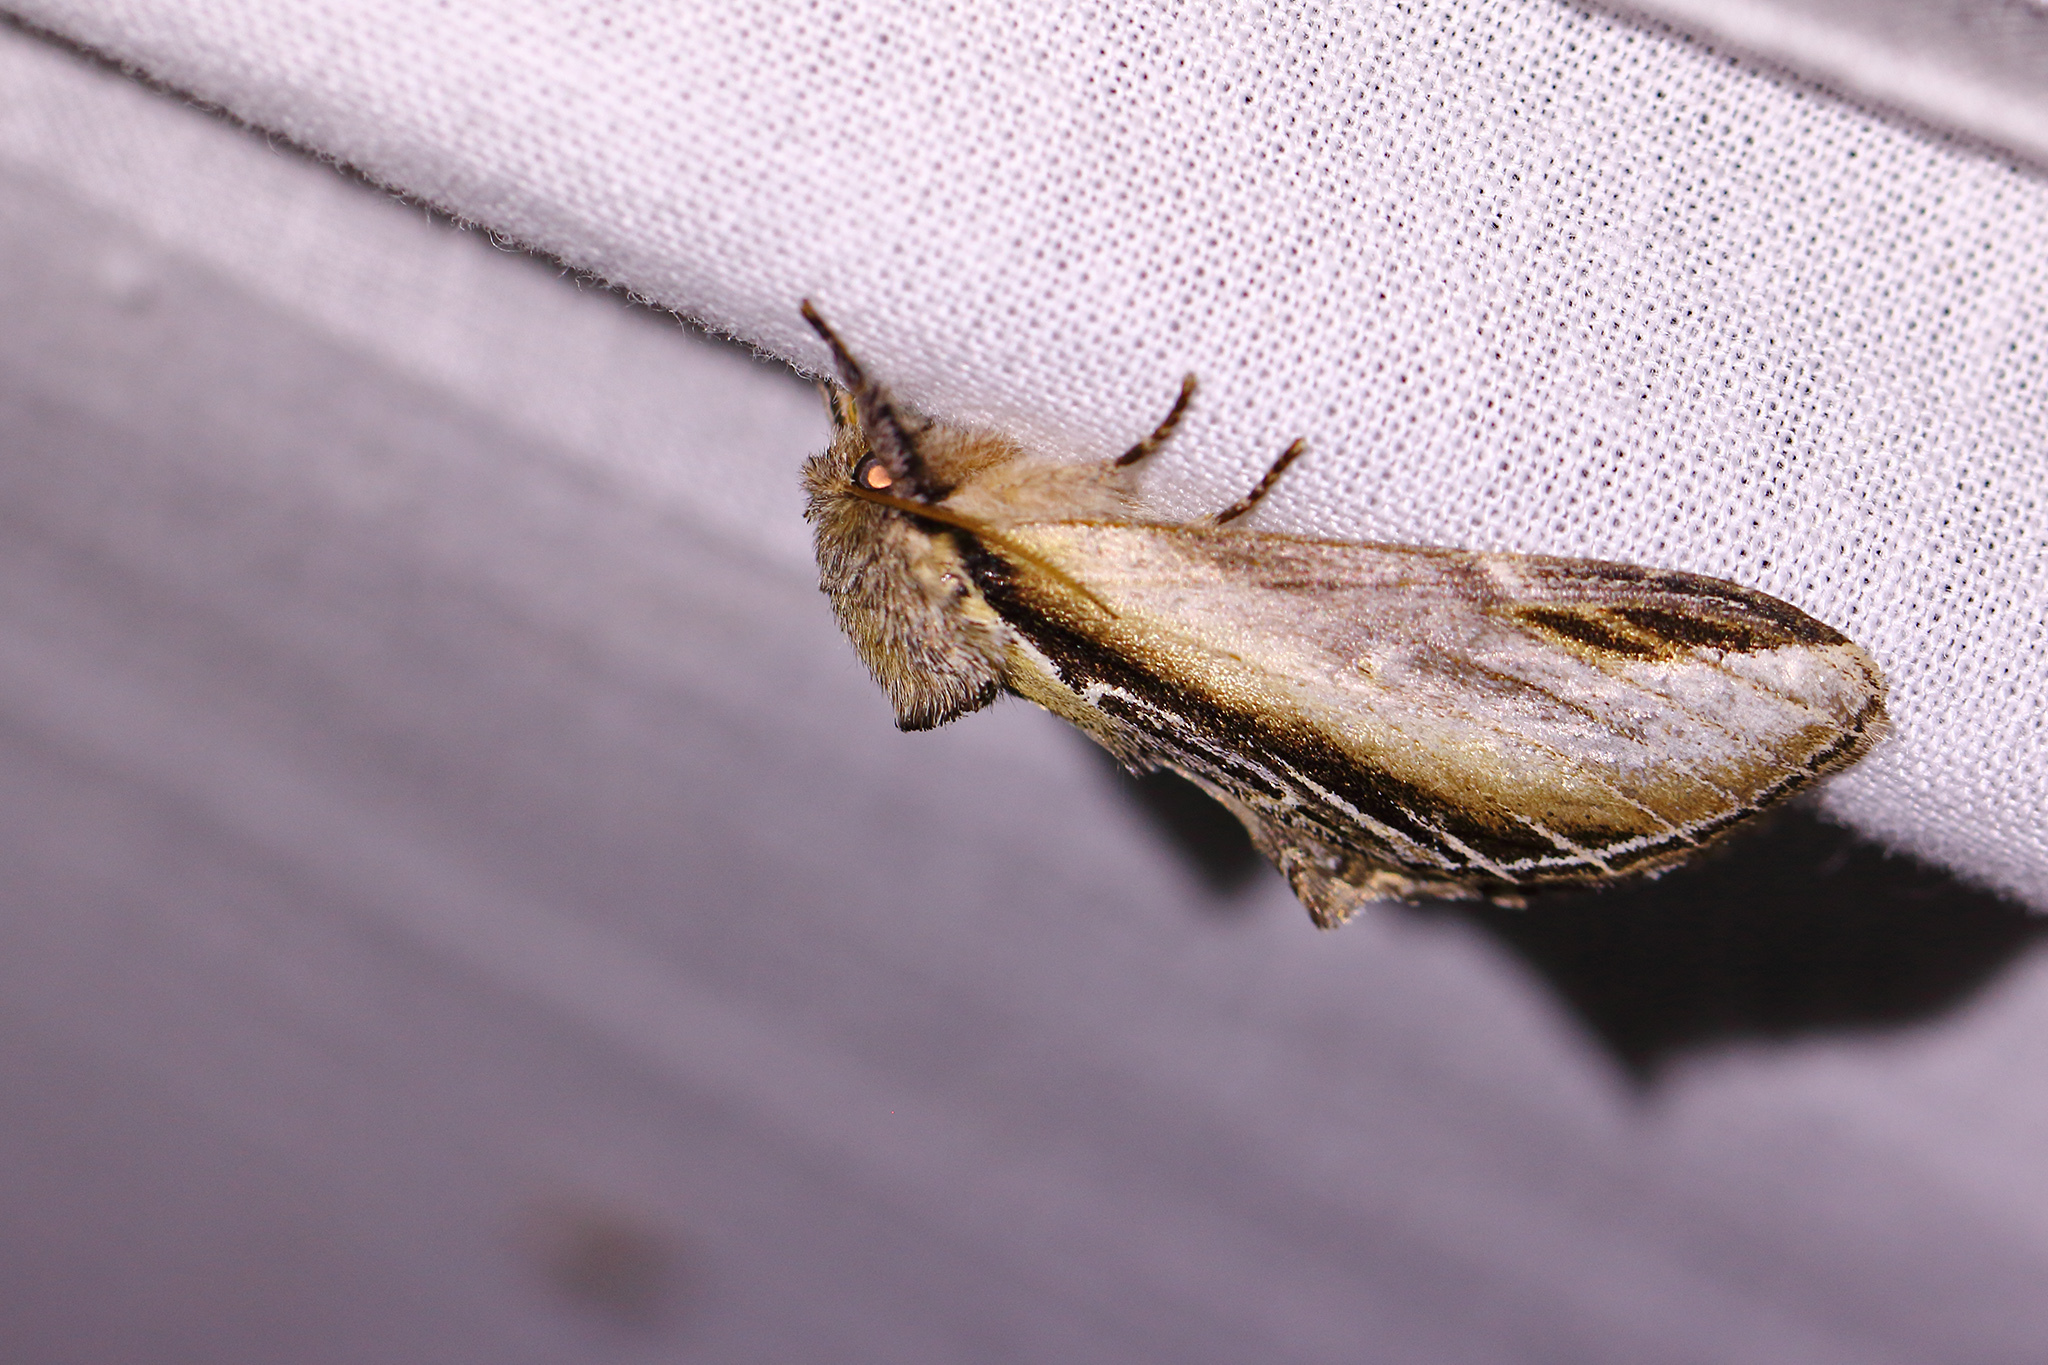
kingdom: Animalia
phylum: Arthropoda
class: Insecta
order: Lepidoptera
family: Notodontidae
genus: Pheosia
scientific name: Pheosia tremula
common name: Swallow prominent
